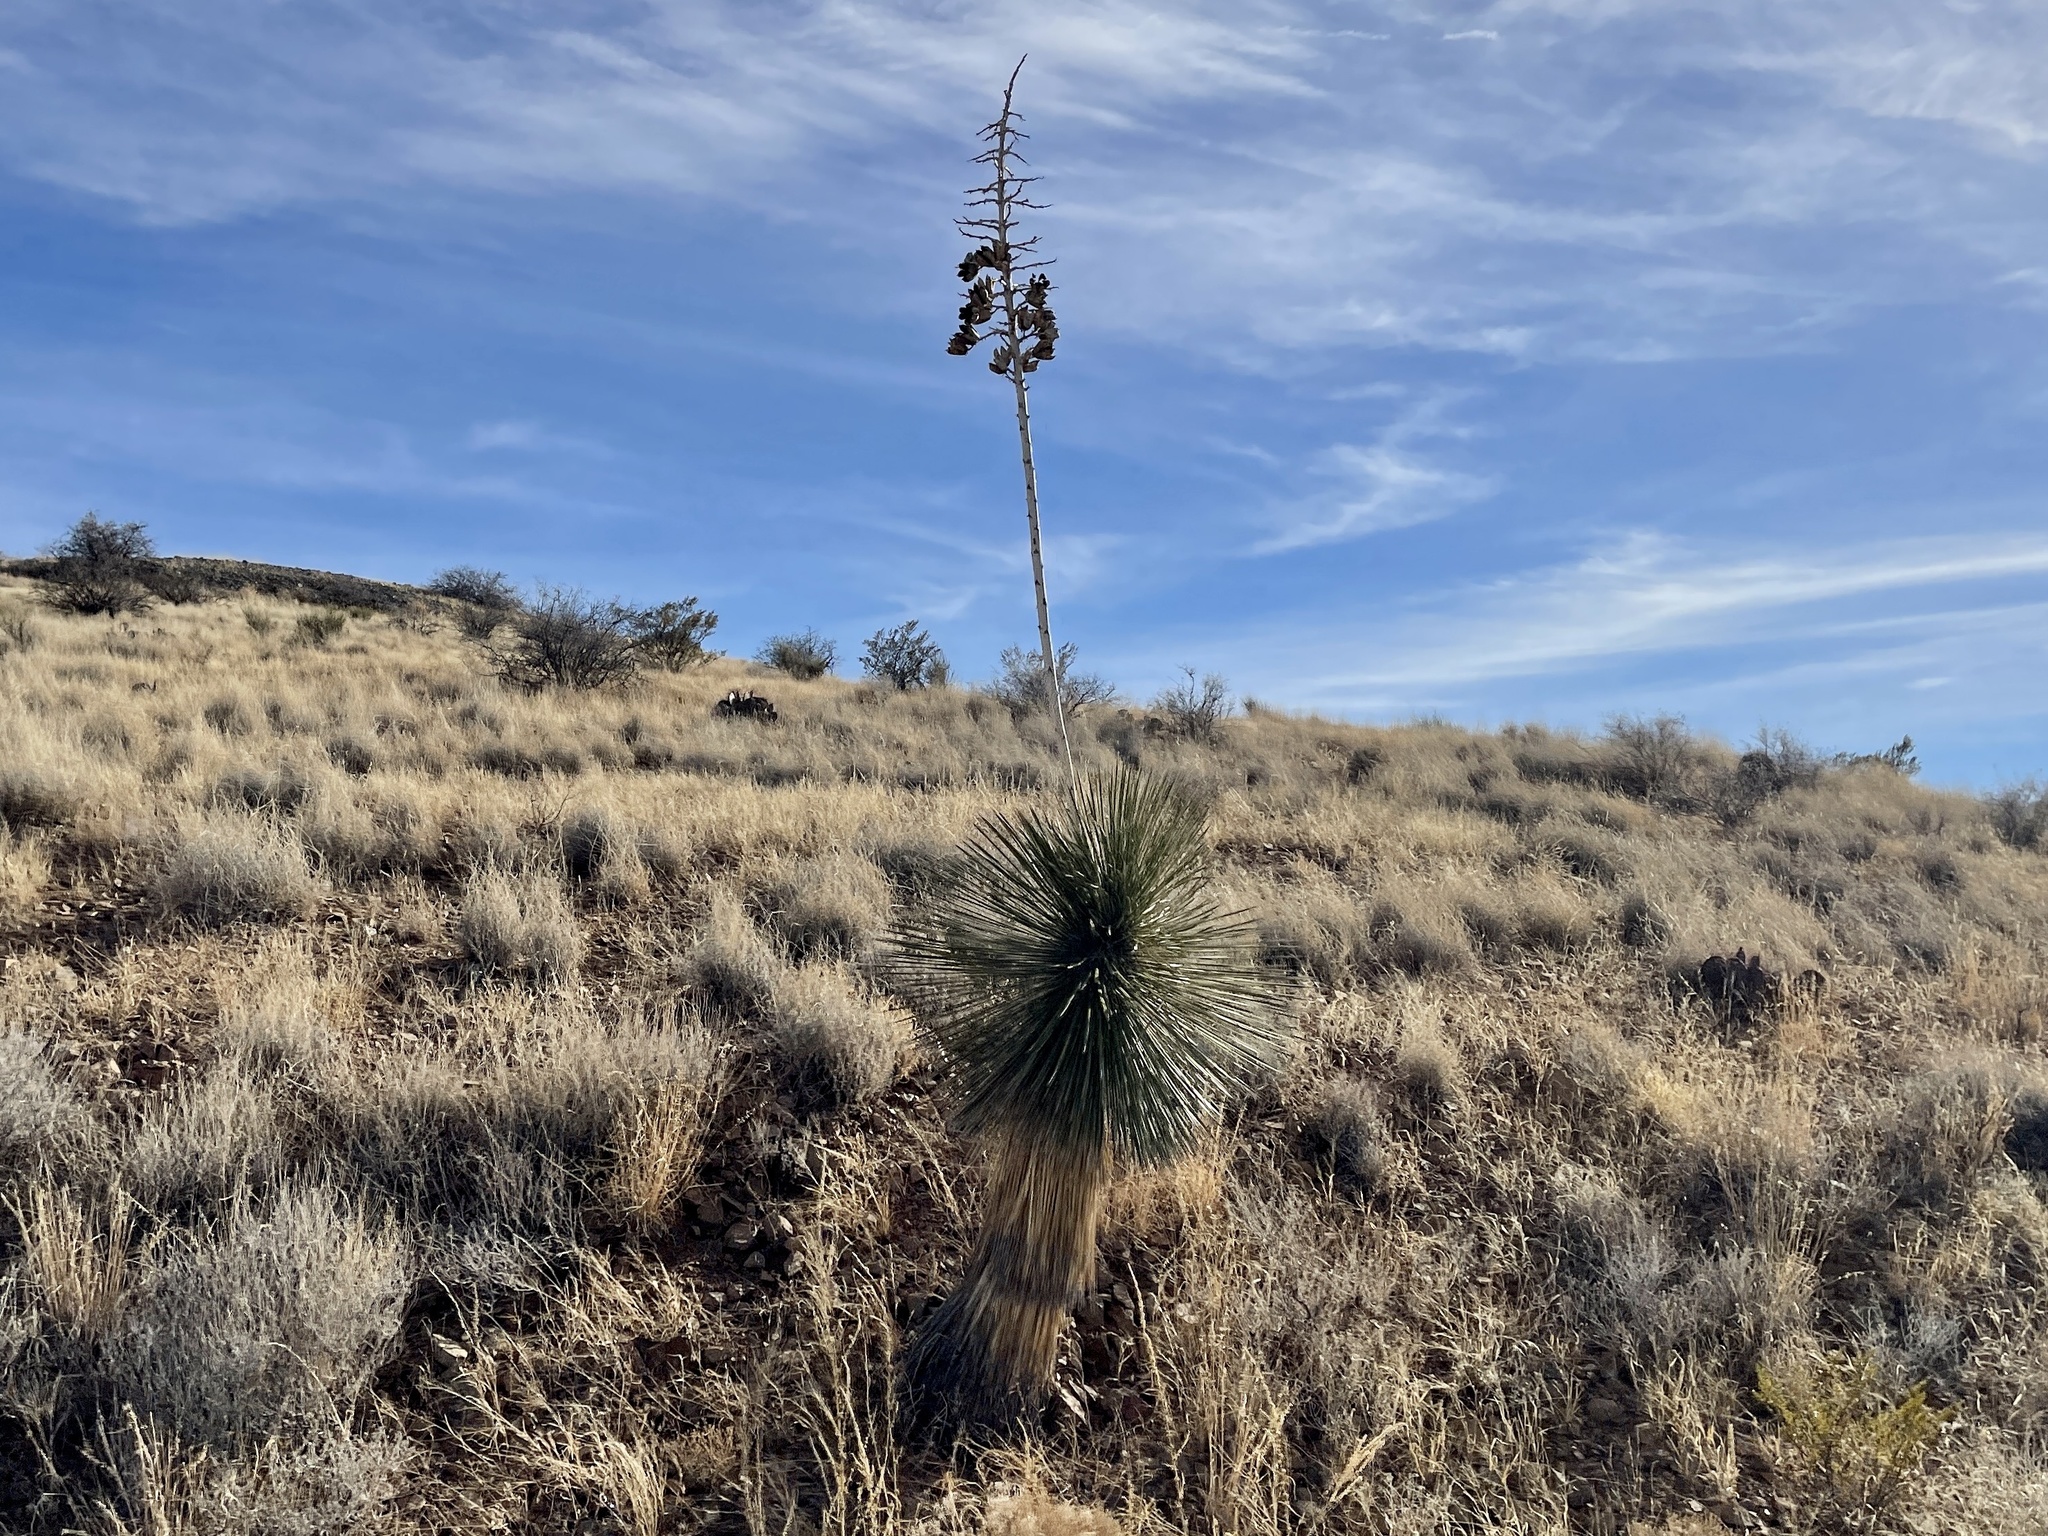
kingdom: Plantae
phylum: Tracheophyta
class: Liliopsida
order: Asparagales
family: Asparagaceae
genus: Yucca
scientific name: Yucca elata
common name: Palmella
